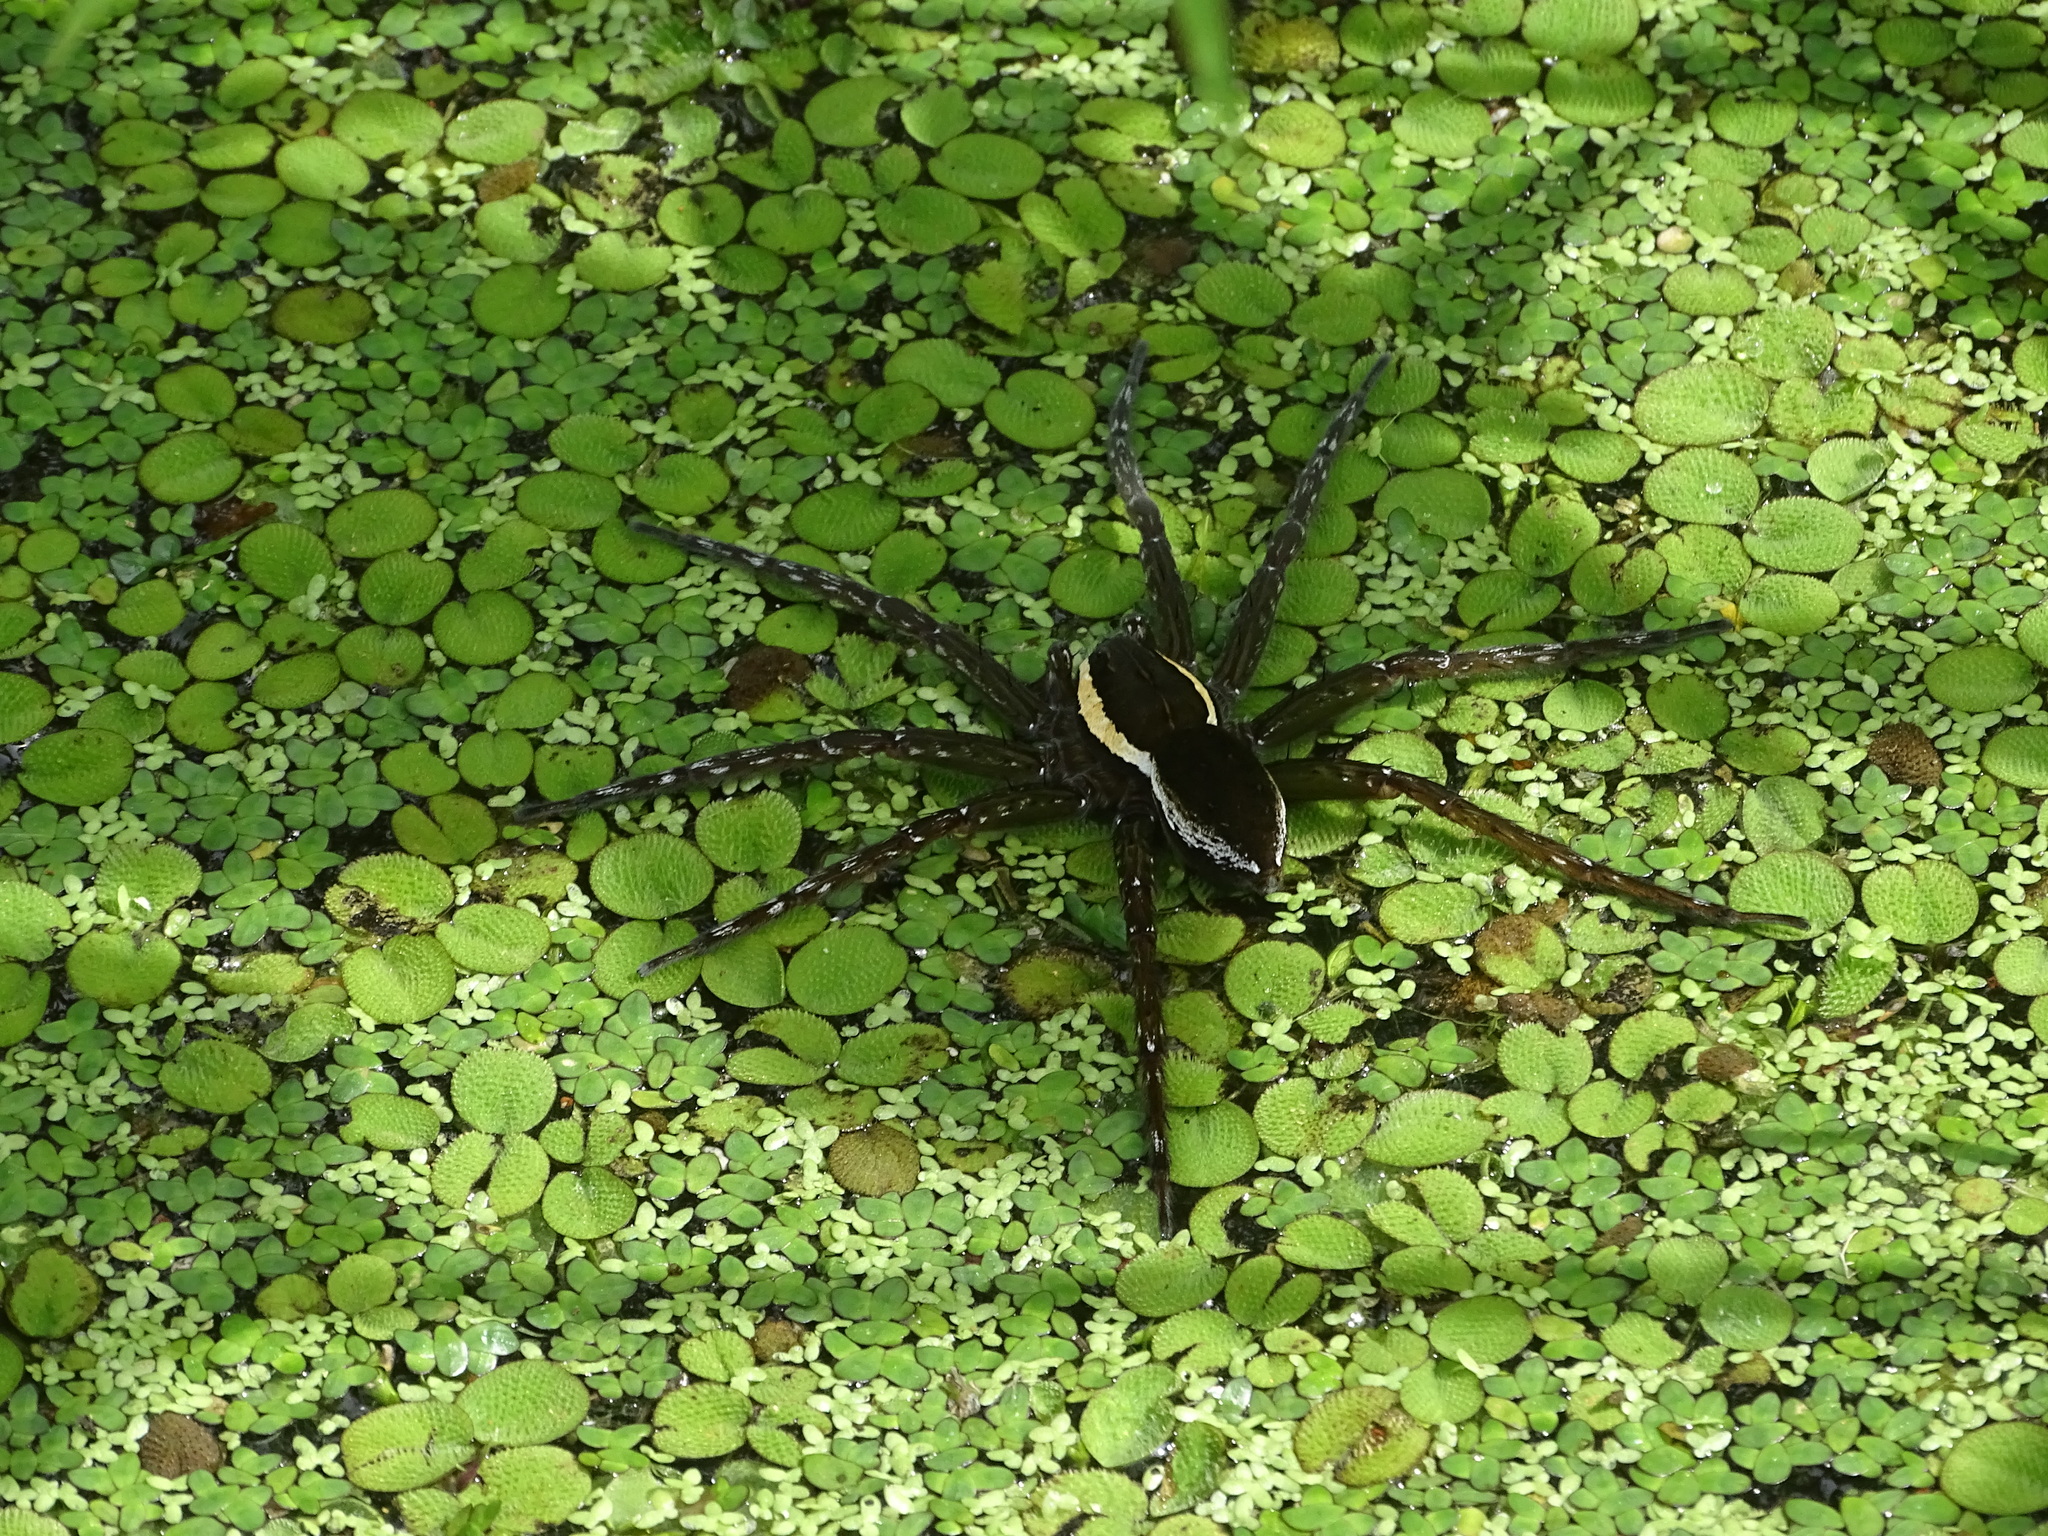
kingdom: Animalia
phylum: Arthropoda
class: Arachnida
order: Araneae
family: Pisauridae
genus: Dolomedes
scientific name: Dolomedes triton
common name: Six-spotted fishing spider
